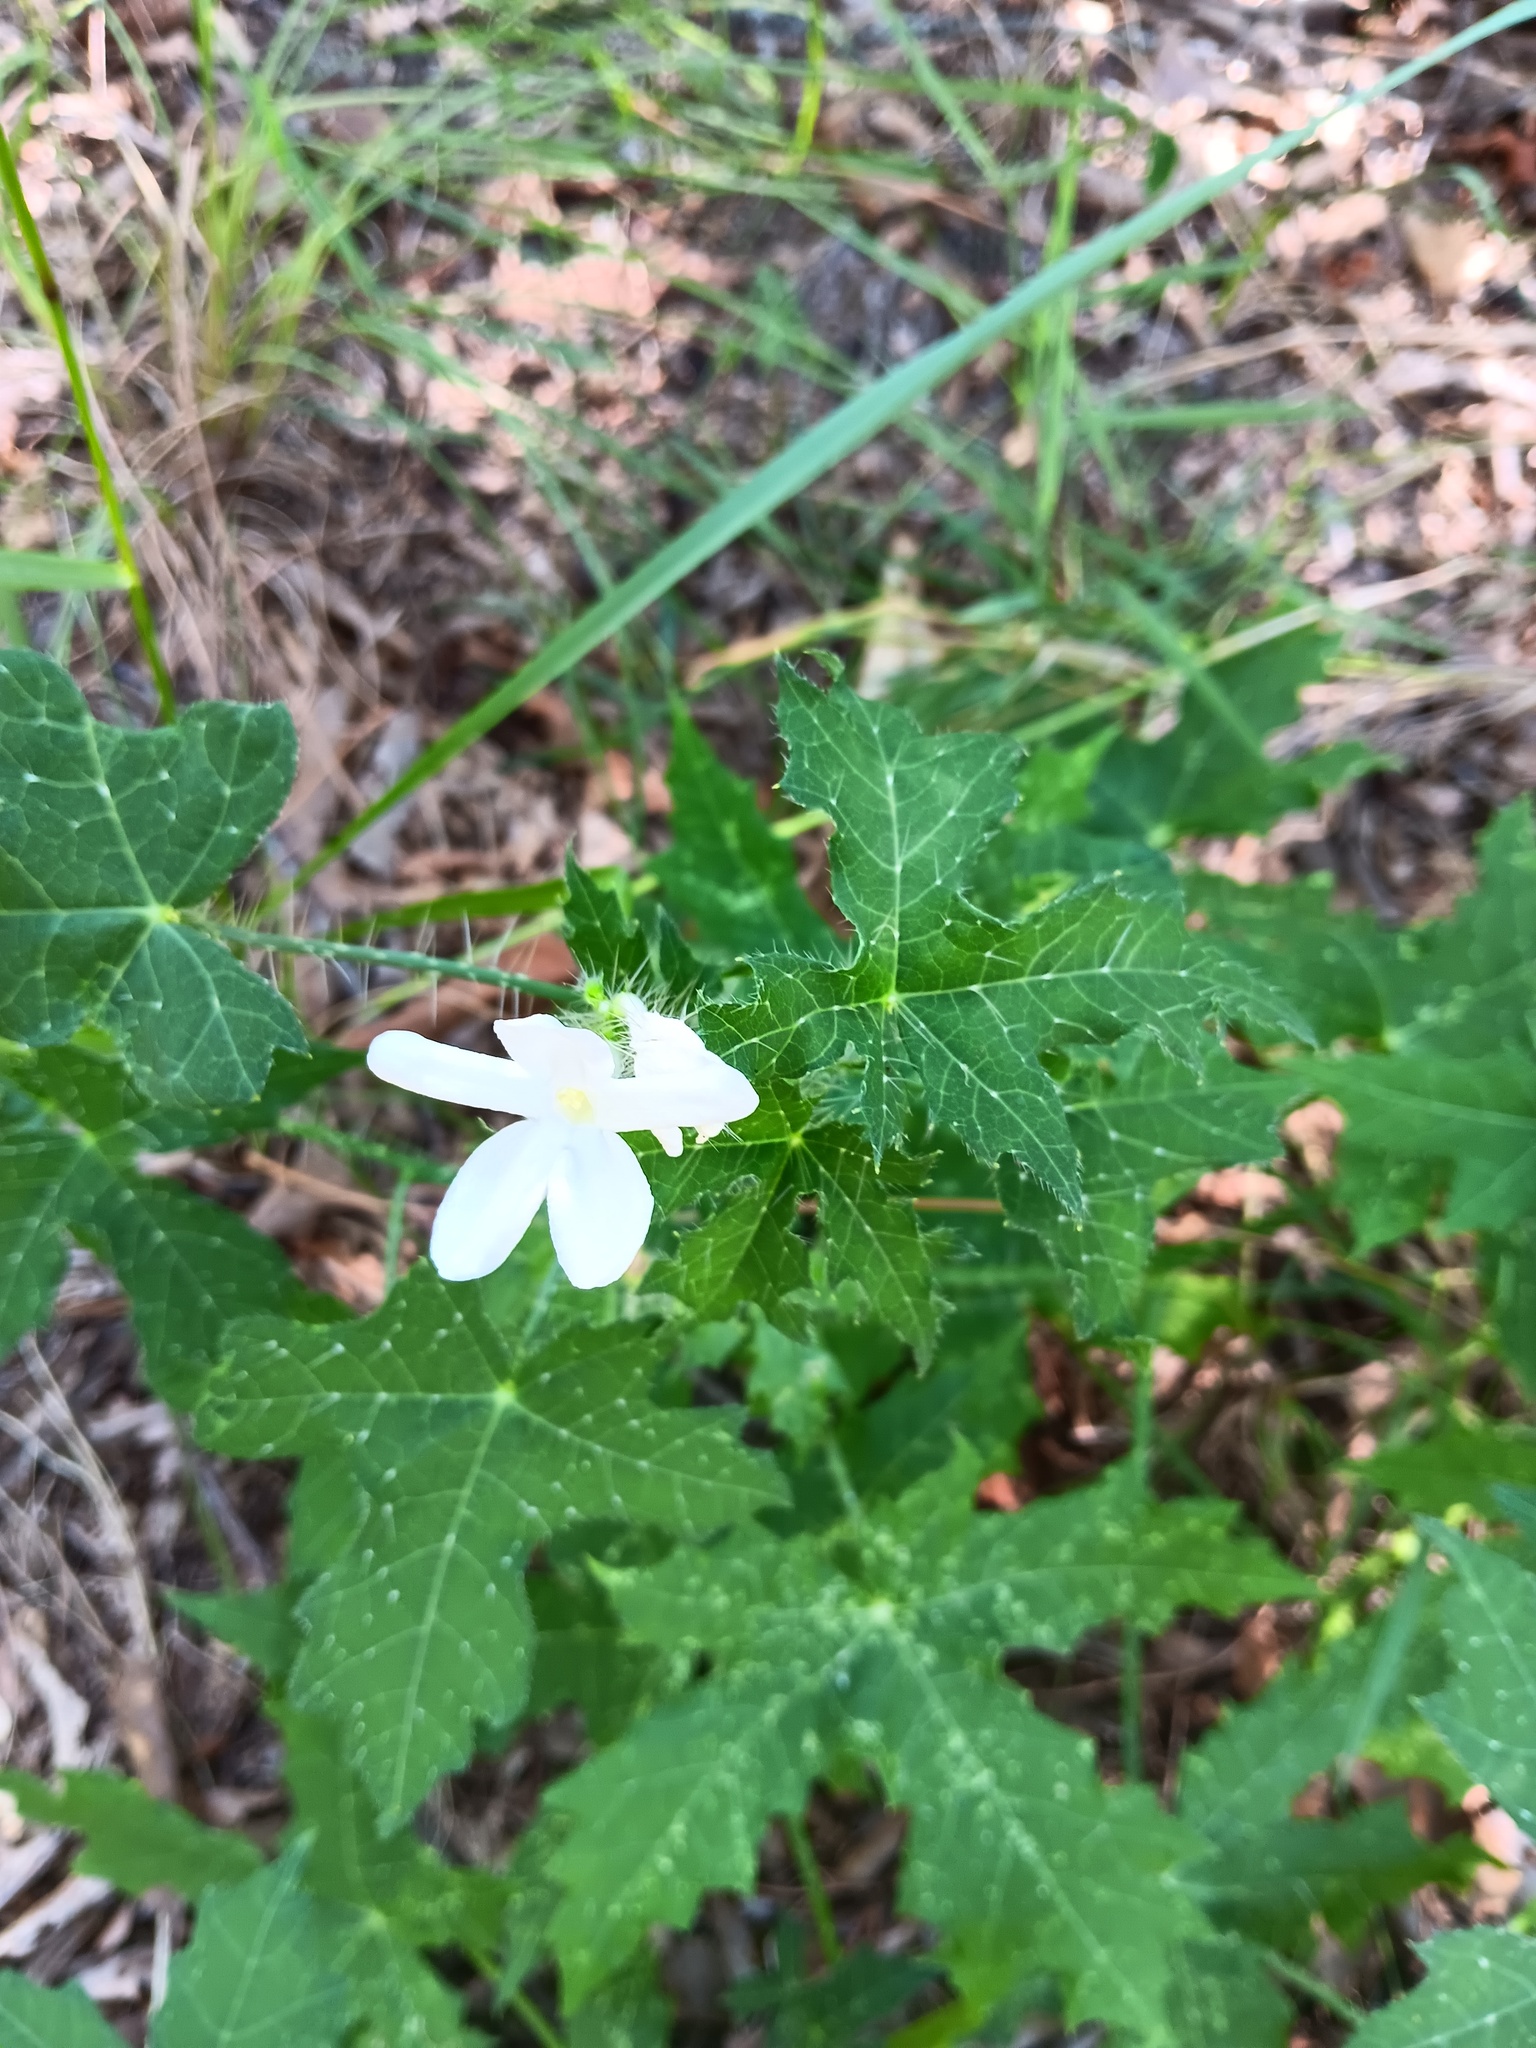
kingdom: Plantae
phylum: Tracheophyta
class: Magnoliopsida
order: Malpighiales
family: Euphorbiaceae
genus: Cnidoscolus
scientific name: Cnidoscolus texanus
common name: Texas bull-nettle
